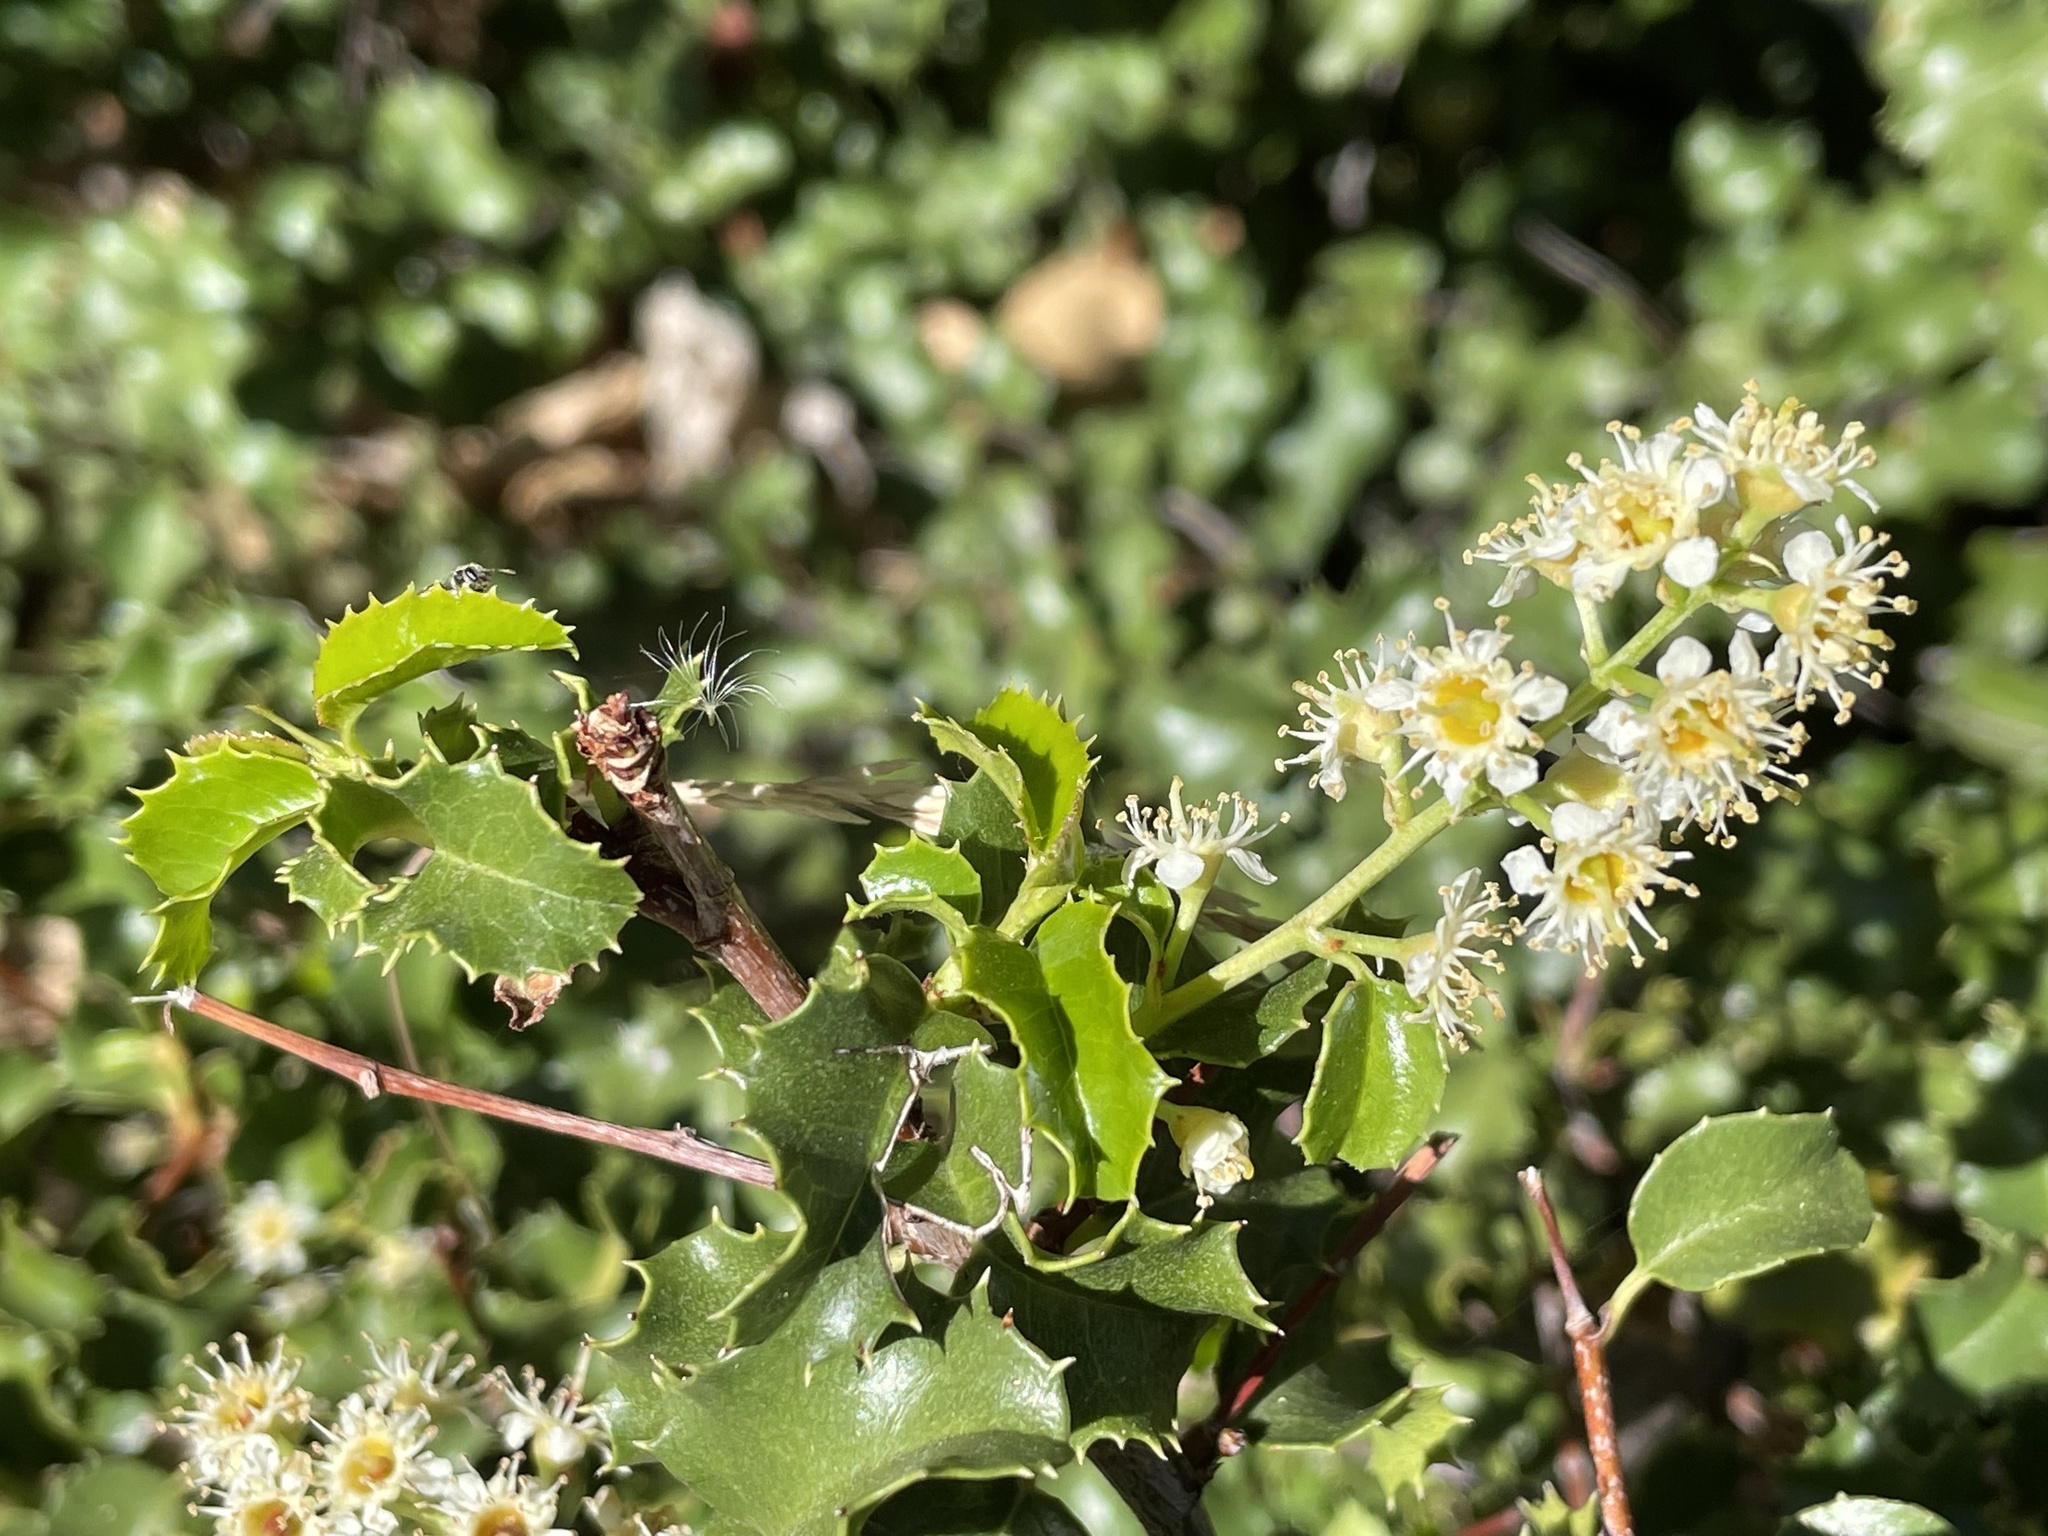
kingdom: Plantae
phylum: Tracheophyta
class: Magnoliopsida
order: Rosales
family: Rosaceae
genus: Prunus
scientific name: Prunus ilicifolia
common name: Hollyleaf cherry
